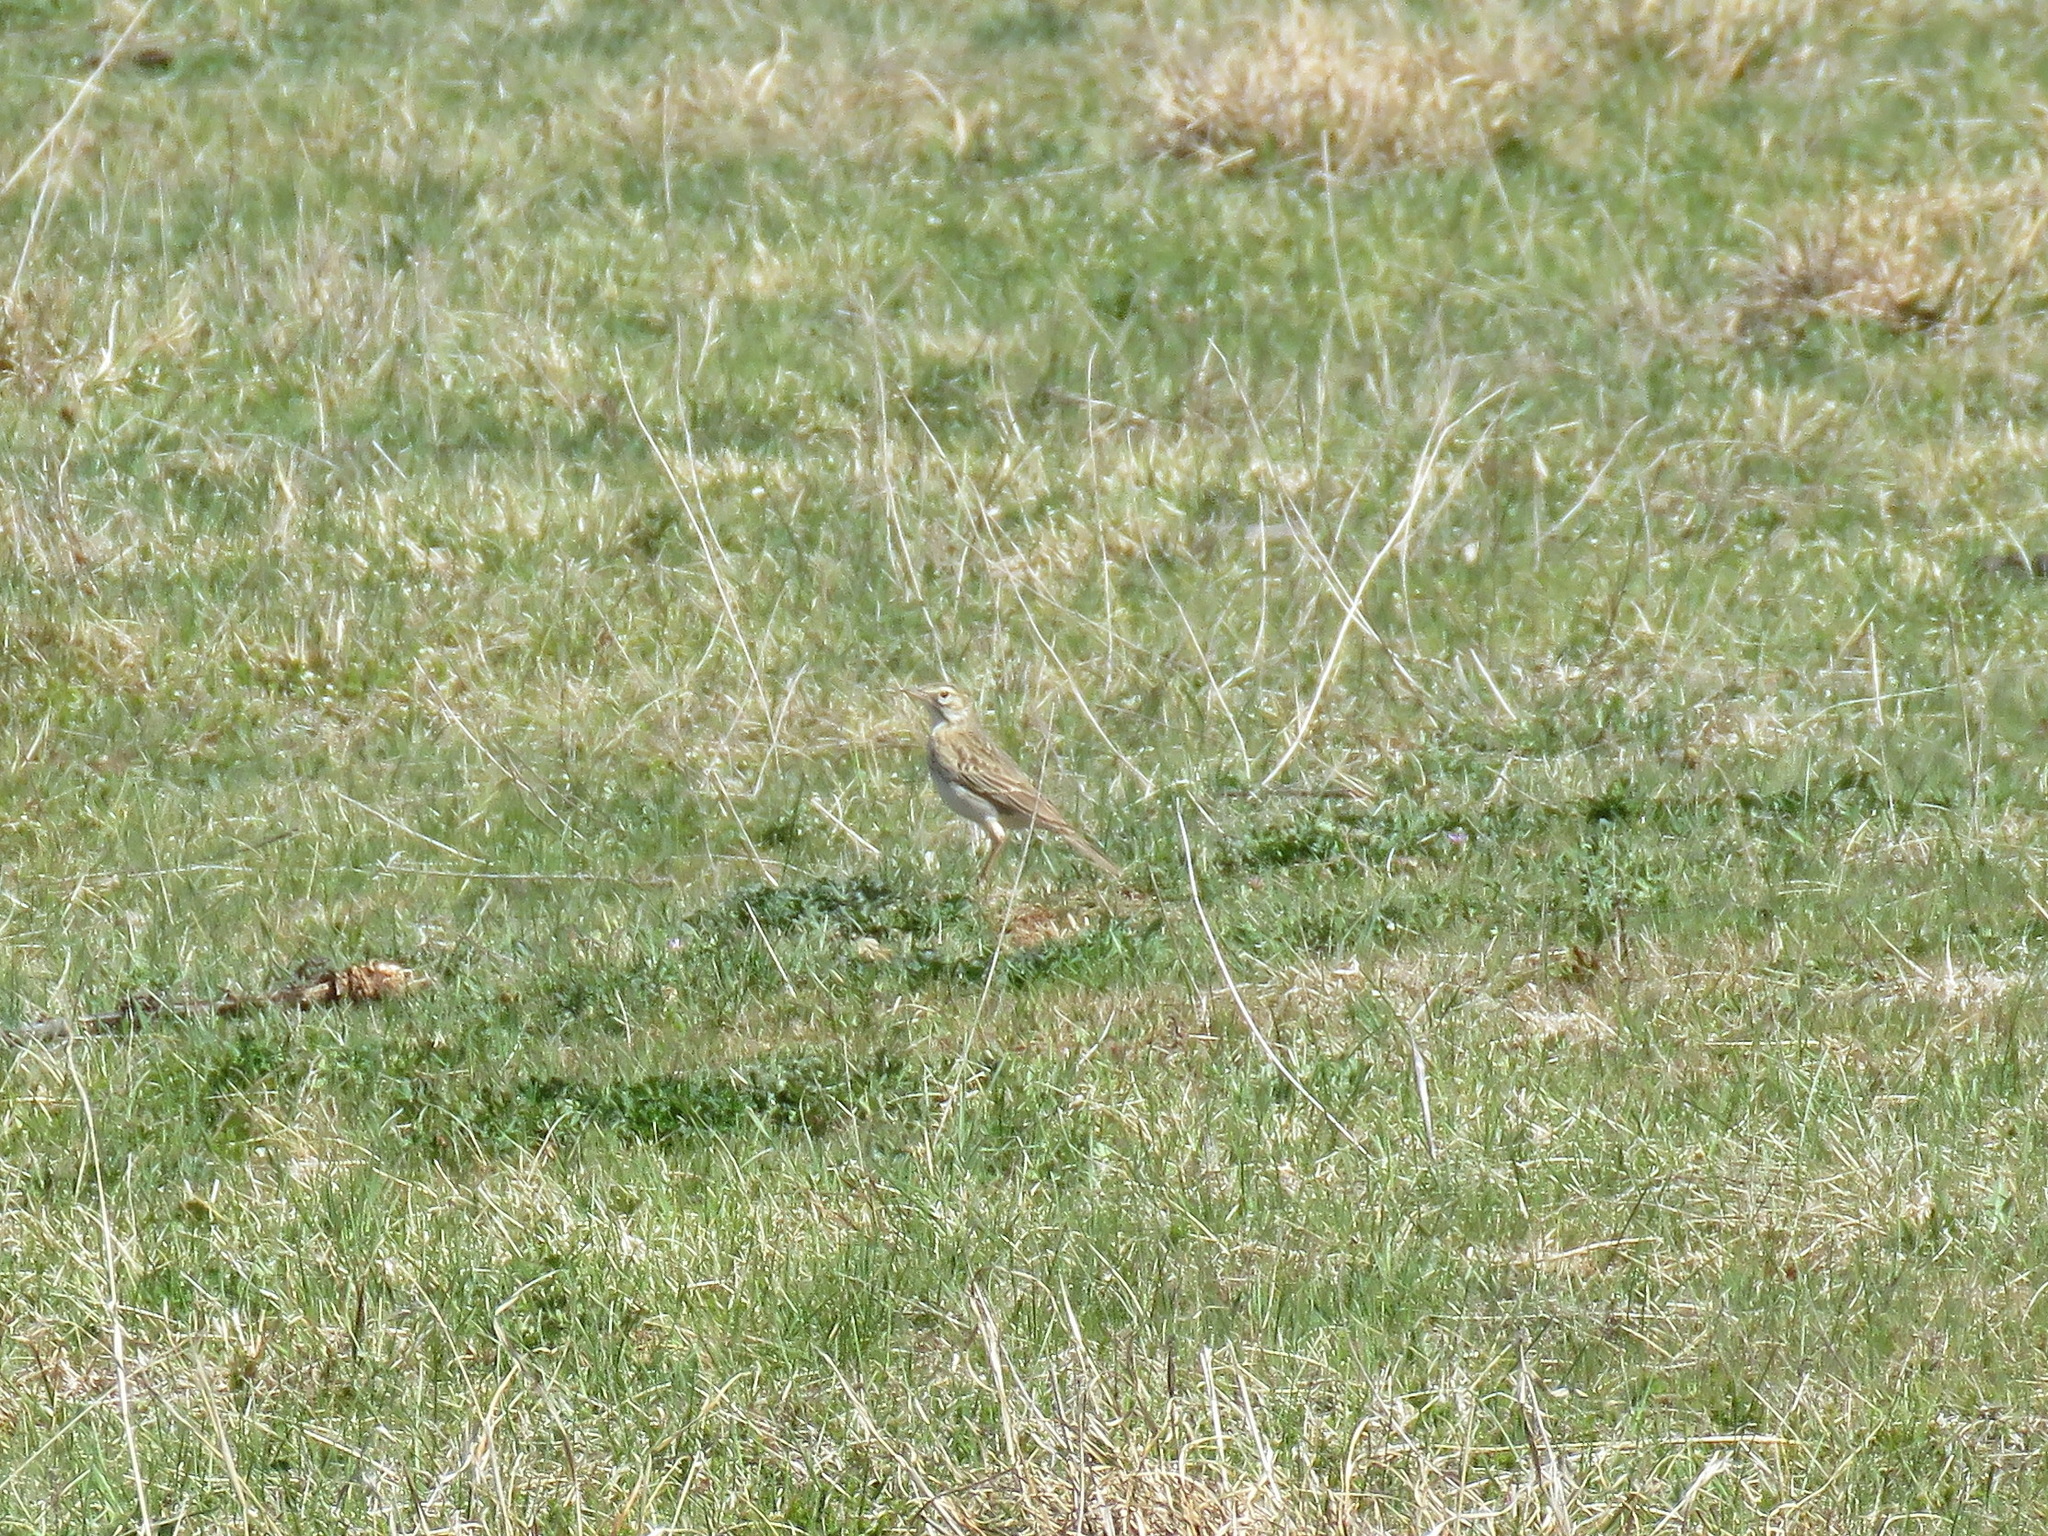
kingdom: Animalia
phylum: Chordata
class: Aves
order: Passeriformes
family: Motacillidae
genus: Anthus
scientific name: Anthus australis
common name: Australian pipit
